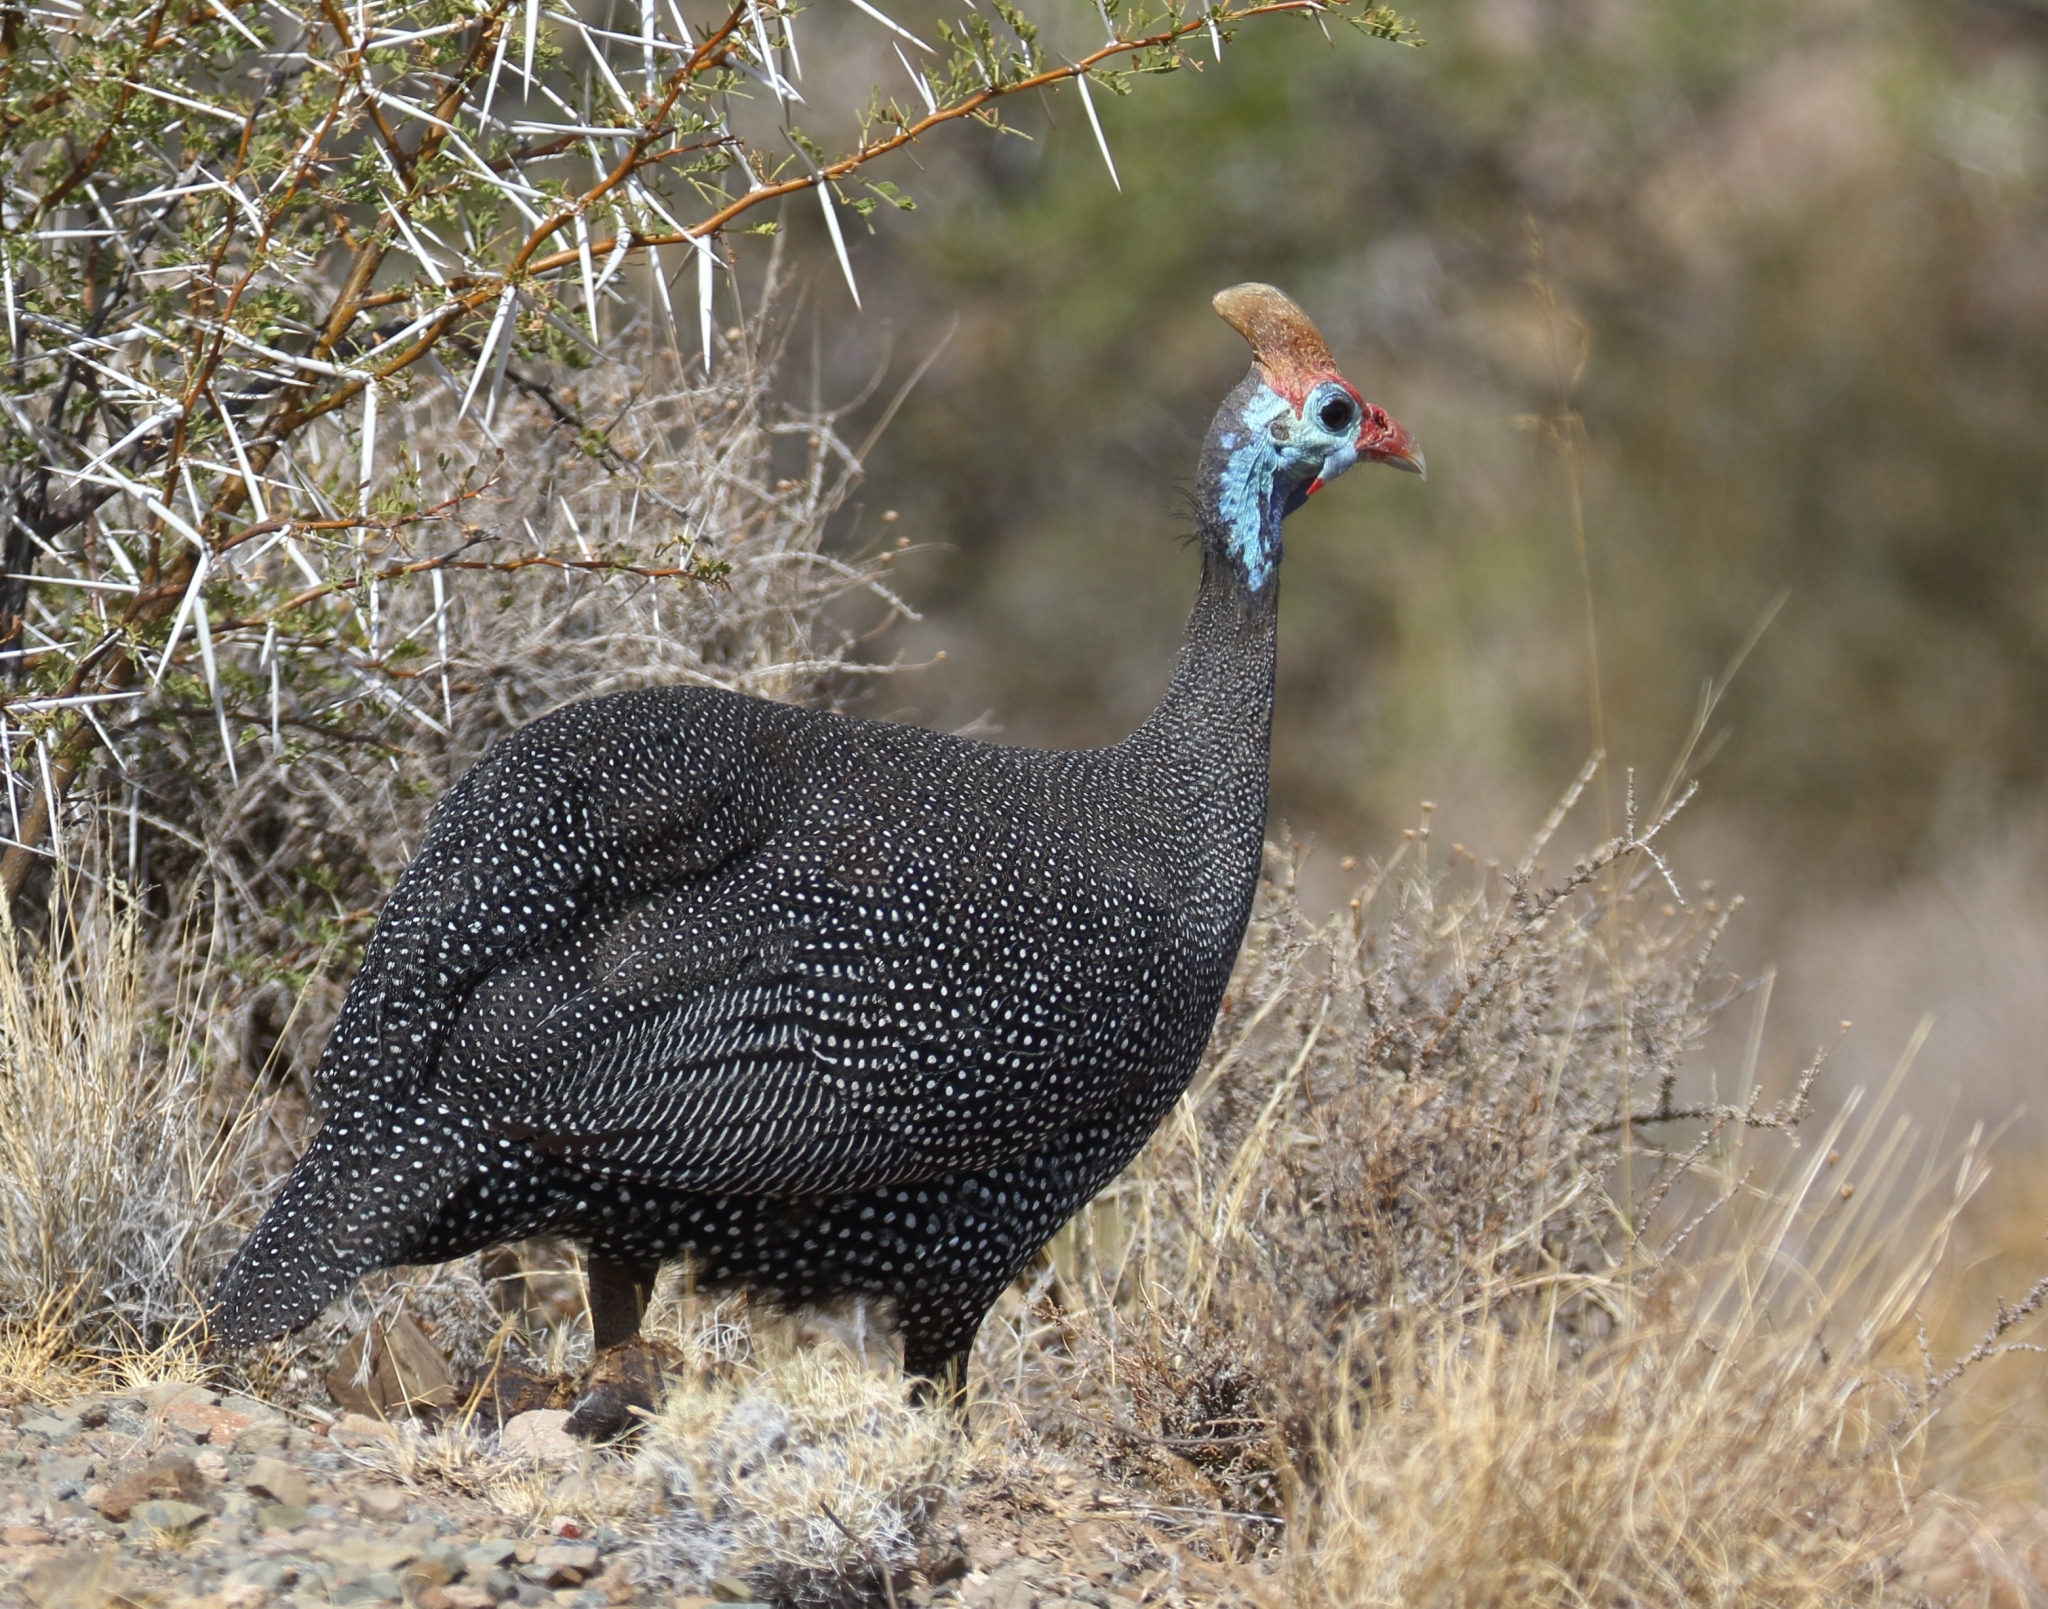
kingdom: Animalia
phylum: Chordata
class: Aves
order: Galliformes
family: Numididae
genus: Numida
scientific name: Numida meleagris
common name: Helmeted guineafowl
